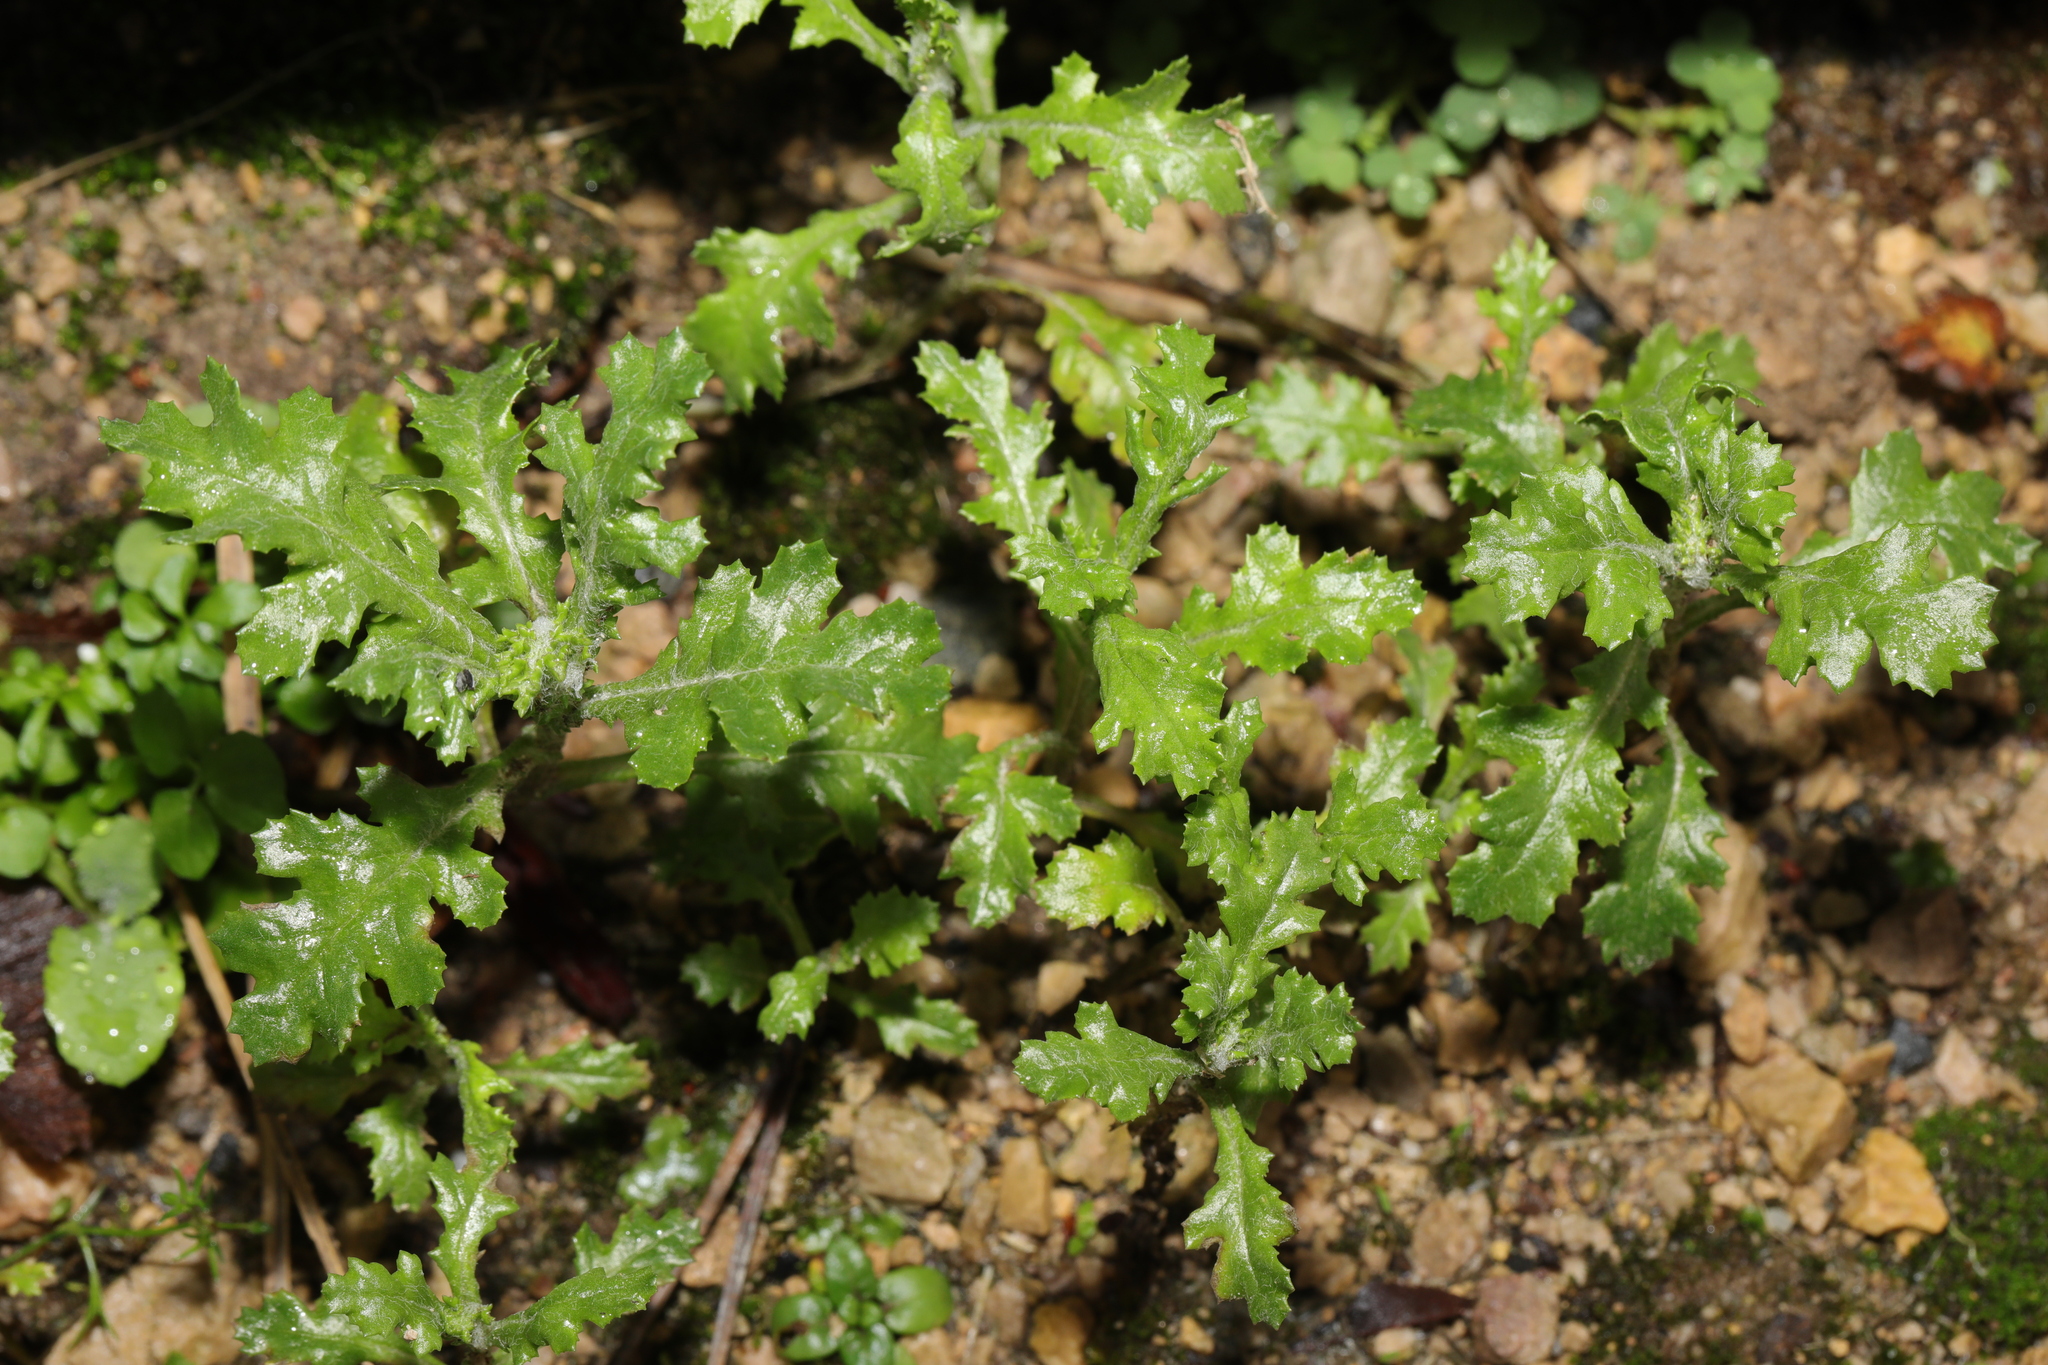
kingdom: Plantae
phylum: Tracheophyta
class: Magnoliopsida
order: Asterales
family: Asteraceae
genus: Senecio
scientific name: Senecio vulgaris
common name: Old-man-in-the-spring
